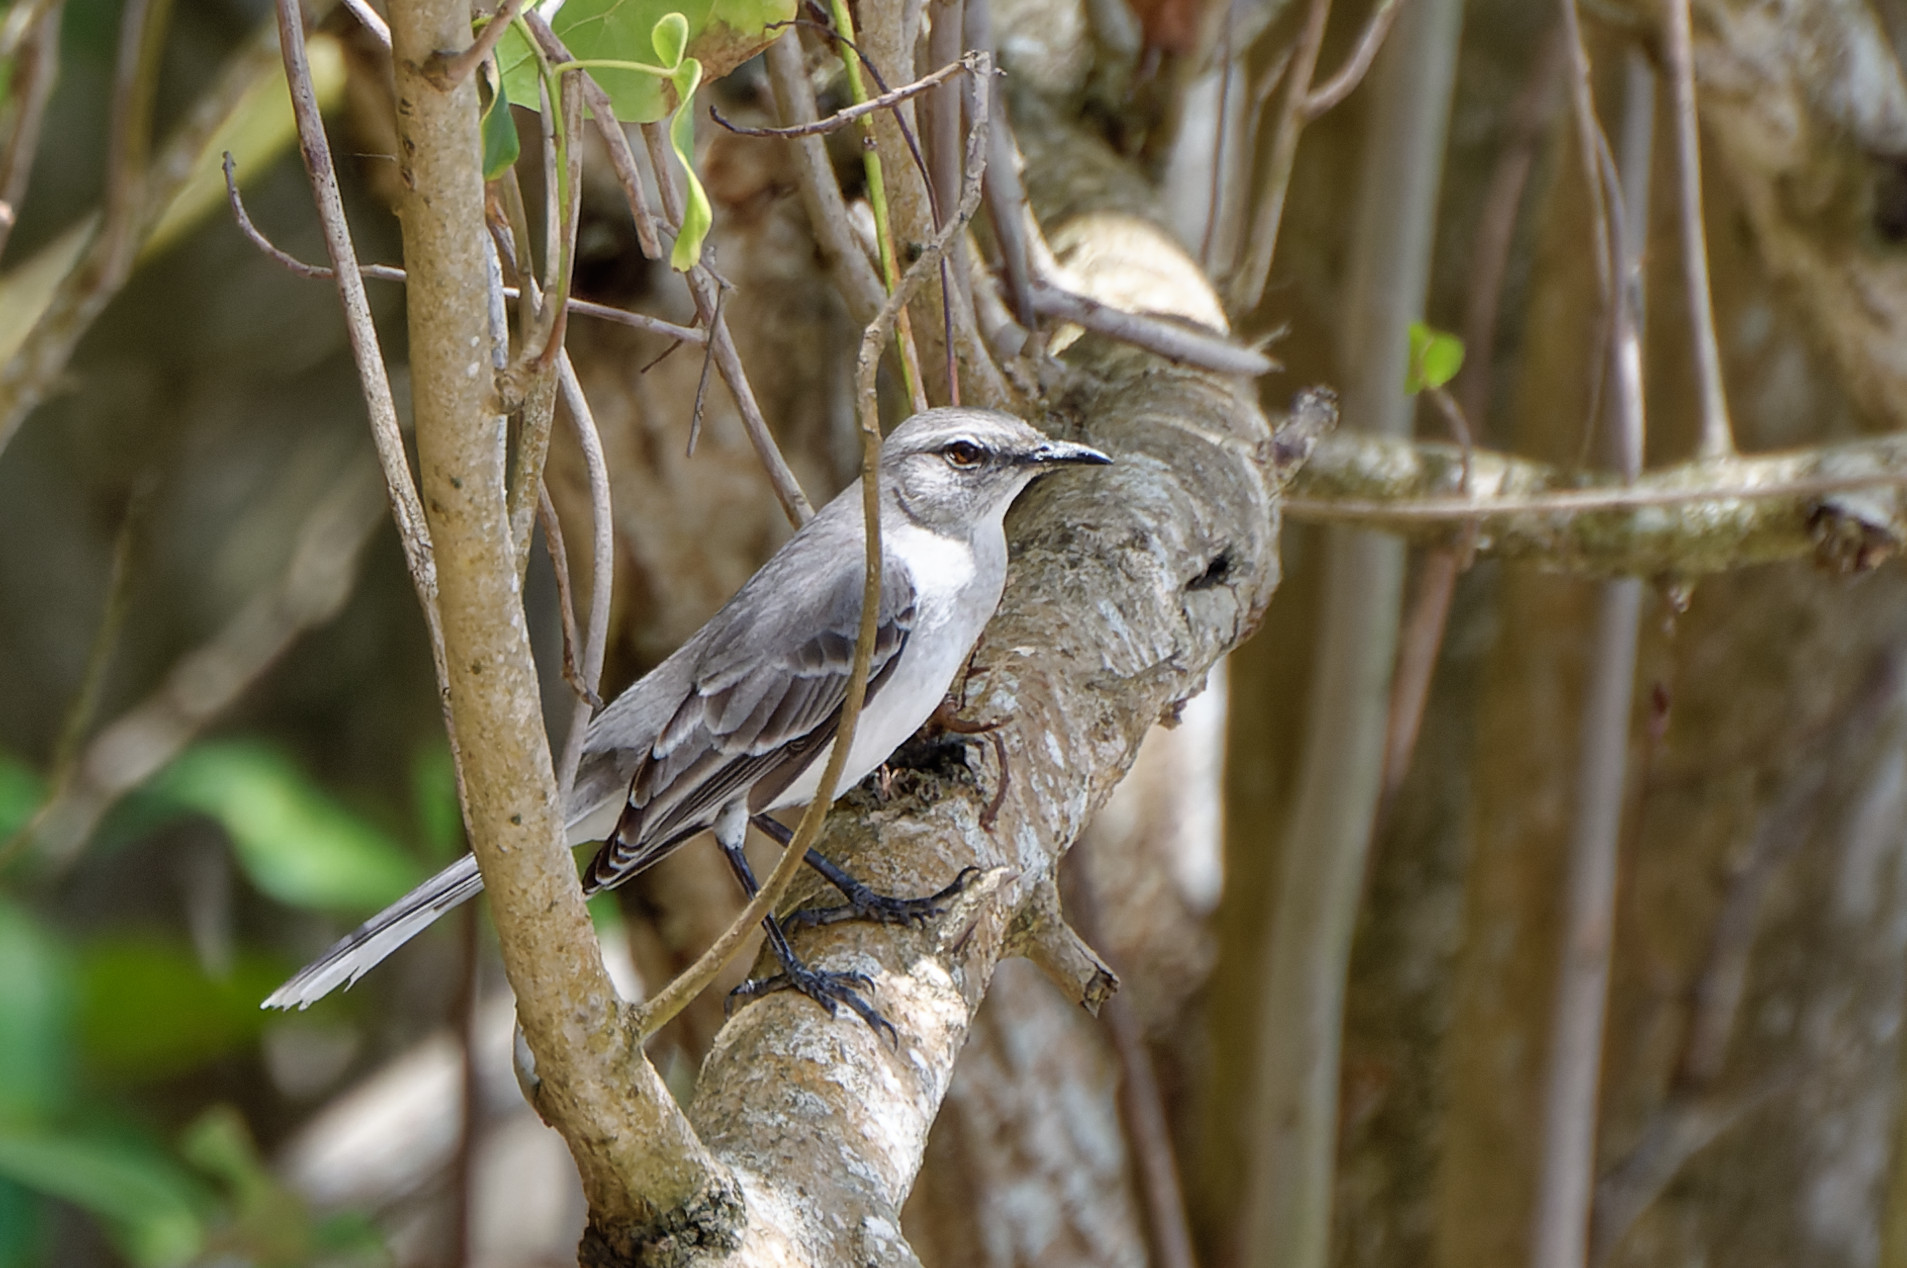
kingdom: Animalia
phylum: Chordata
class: Aves
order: Passeriformes
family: Mimidae
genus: Mimus
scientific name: Mimus gilvus
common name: Tropical mockingbird
